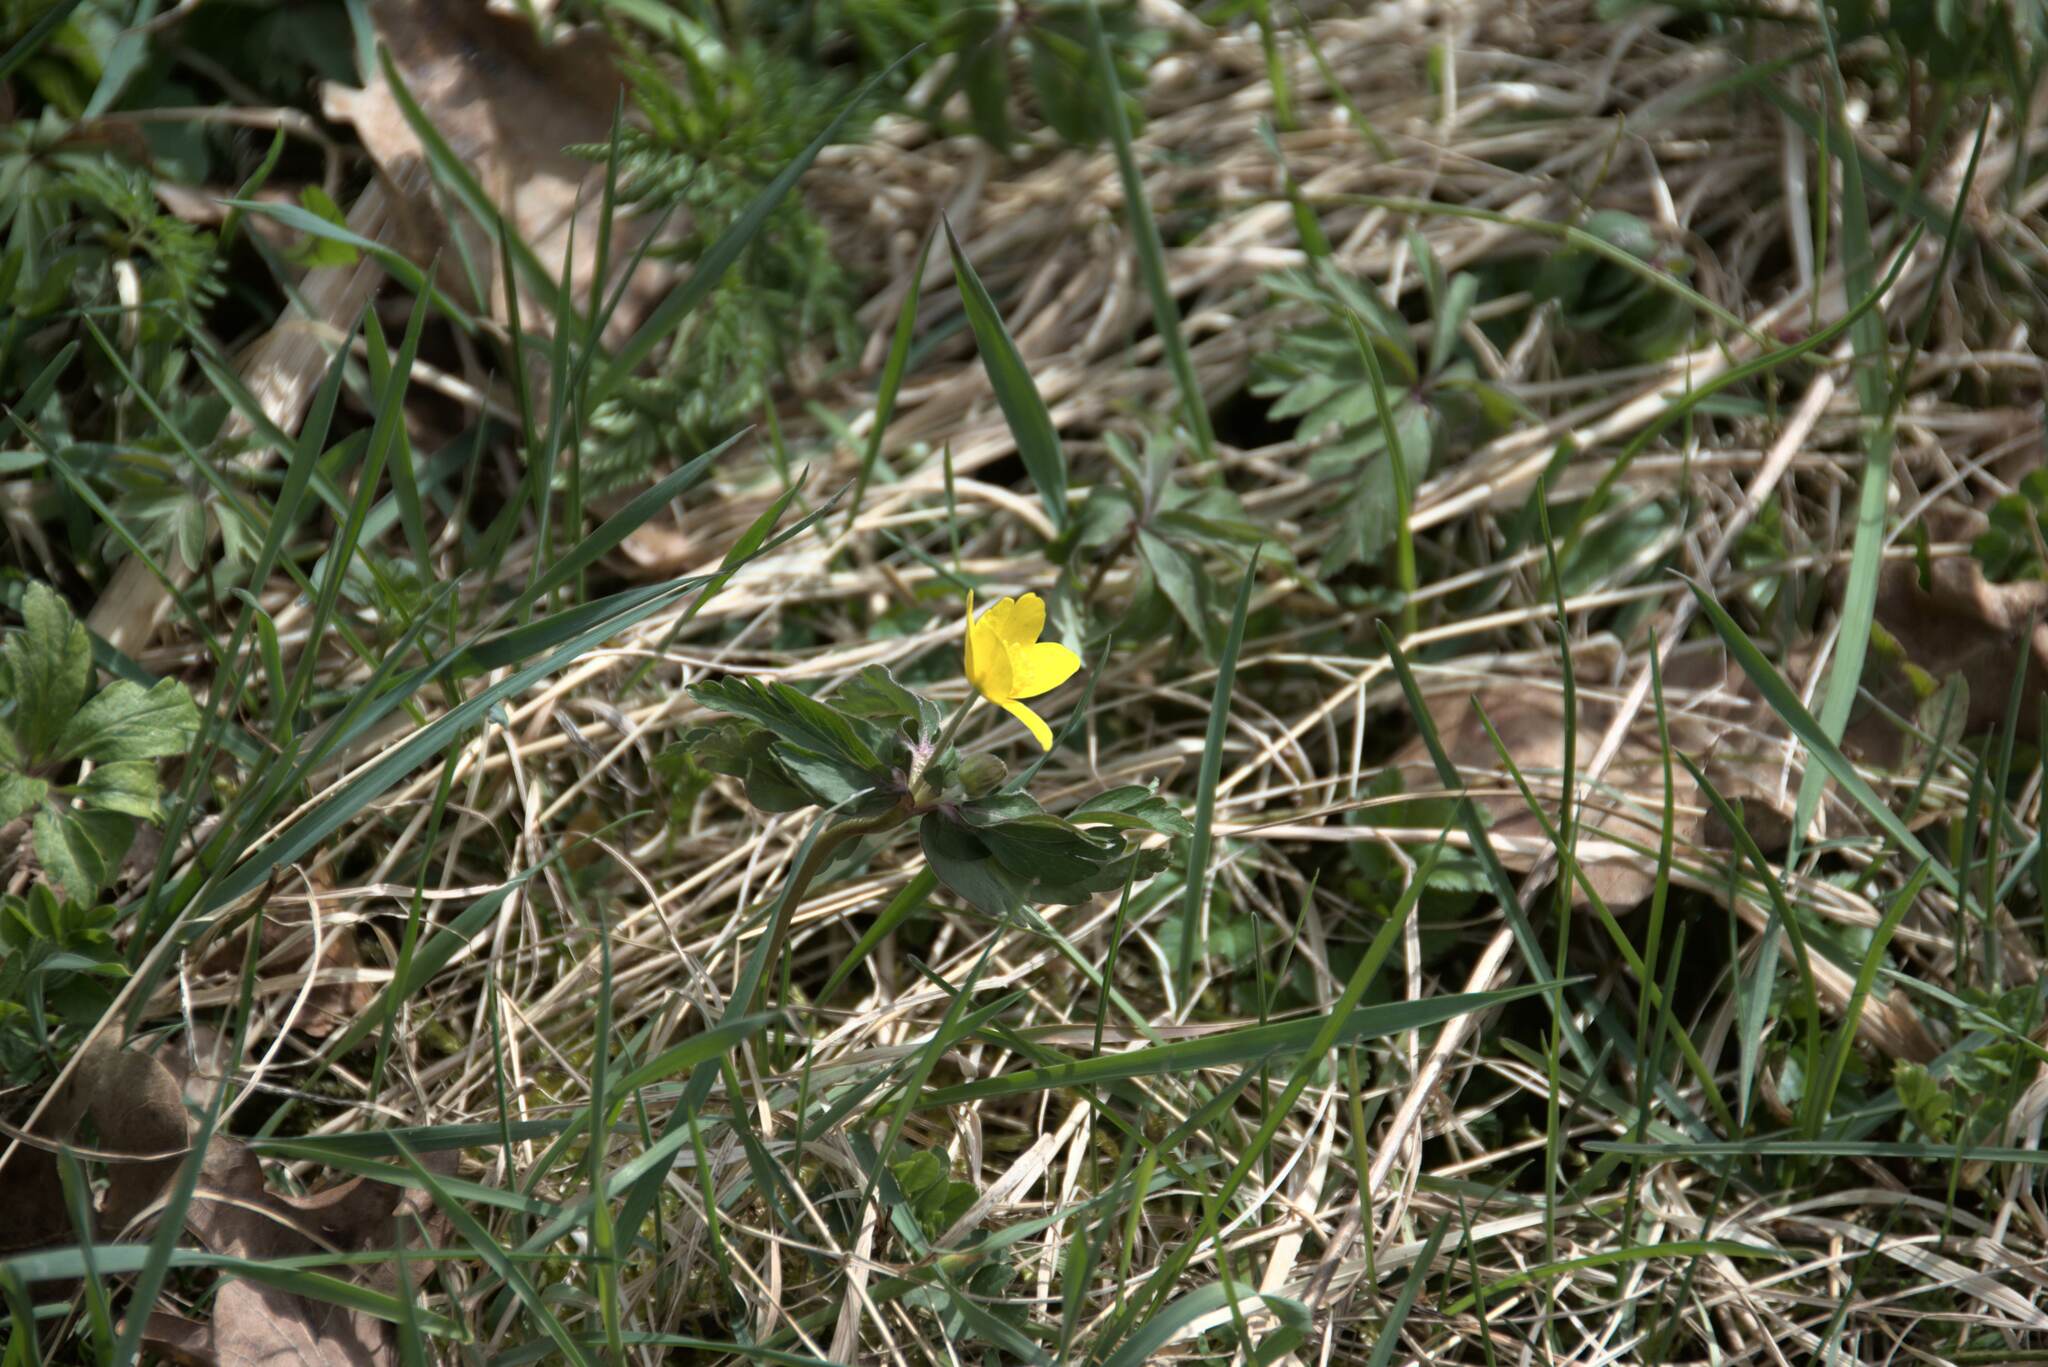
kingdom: Plantae
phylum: Tracheophyta
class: Magnoliopsida
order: Ranunculales
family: Ranunculaceae
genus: Anemone
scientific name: Anemone ranunculoides
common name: Yellow anemone
